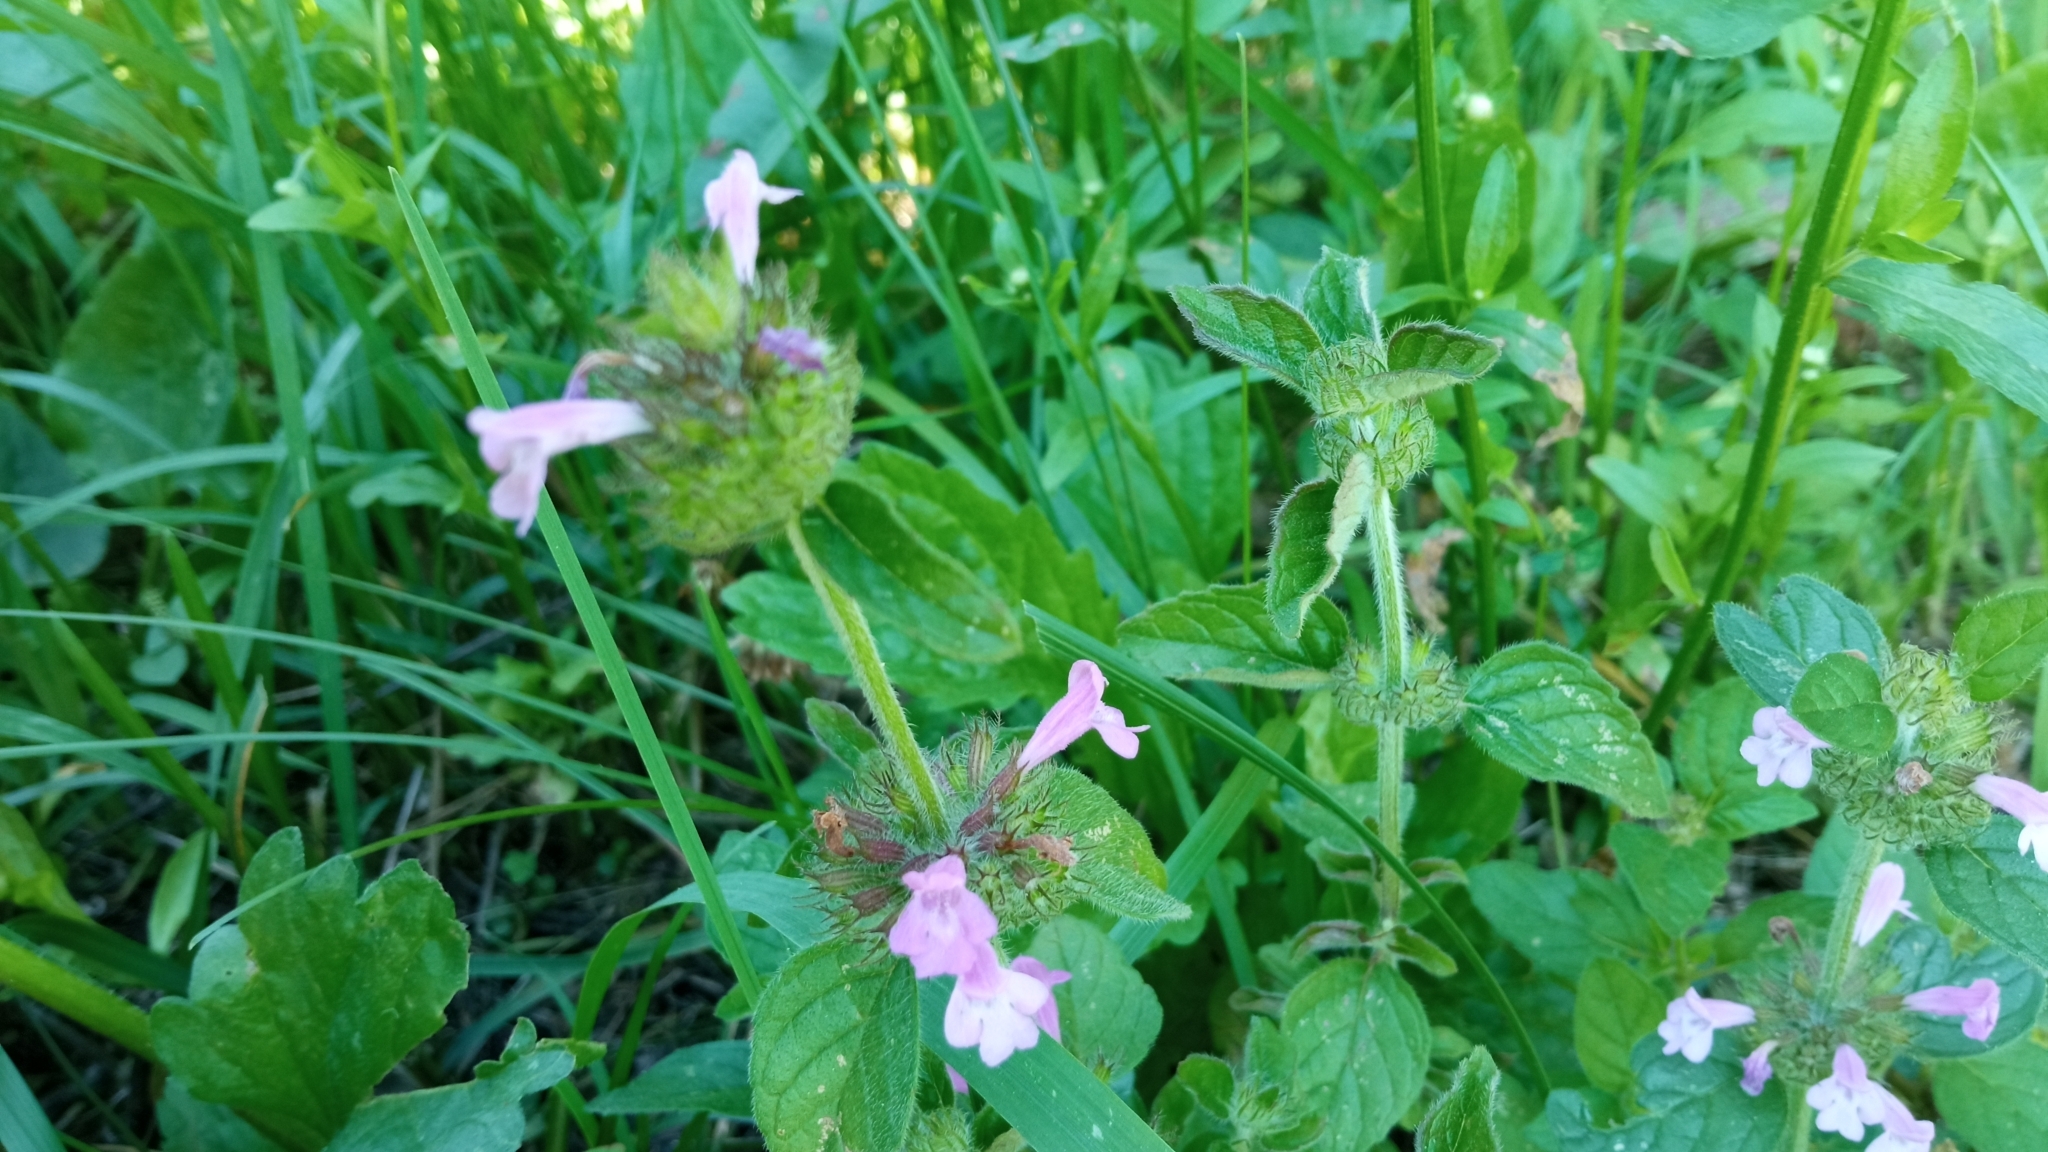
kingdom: Plantae
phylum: Tracheophyta
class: Magnoliopsida
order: Lamiales
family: Lamiaceae
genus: Clinopodium
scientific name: Clinopodium vulgare
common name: Wild basil
